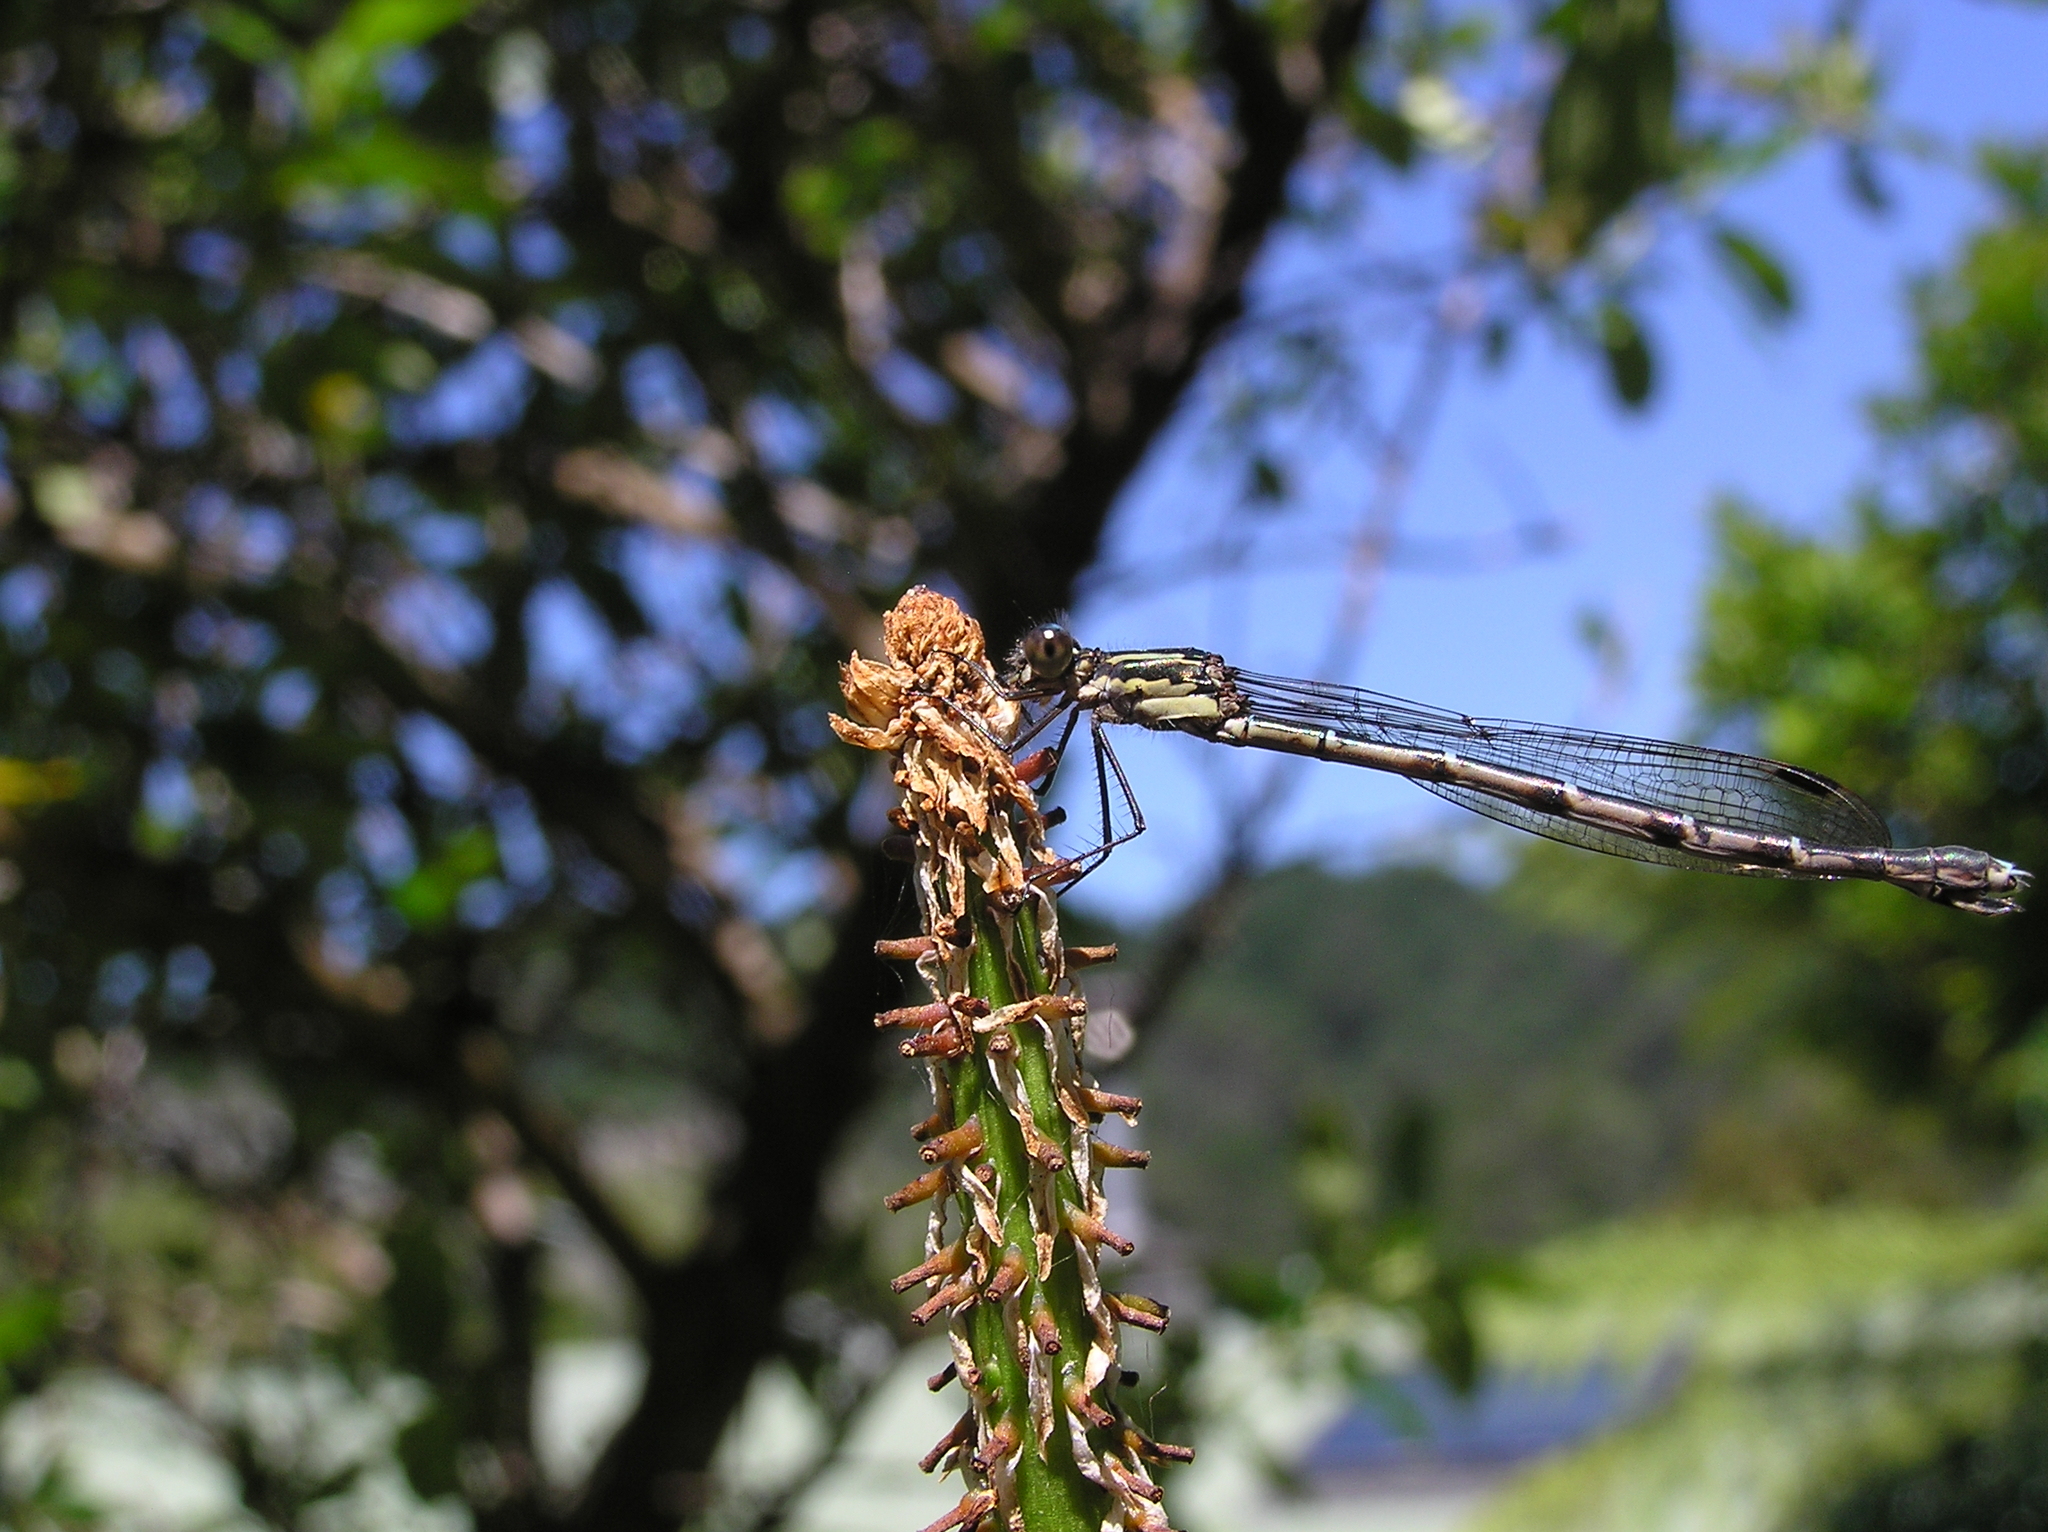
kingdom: Animalia
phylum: Arthropoda
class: Insecta
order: Odonata
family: Lestidae
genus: Austrolestes
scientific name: Austrolestes colensonis
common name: Blue damselfly
